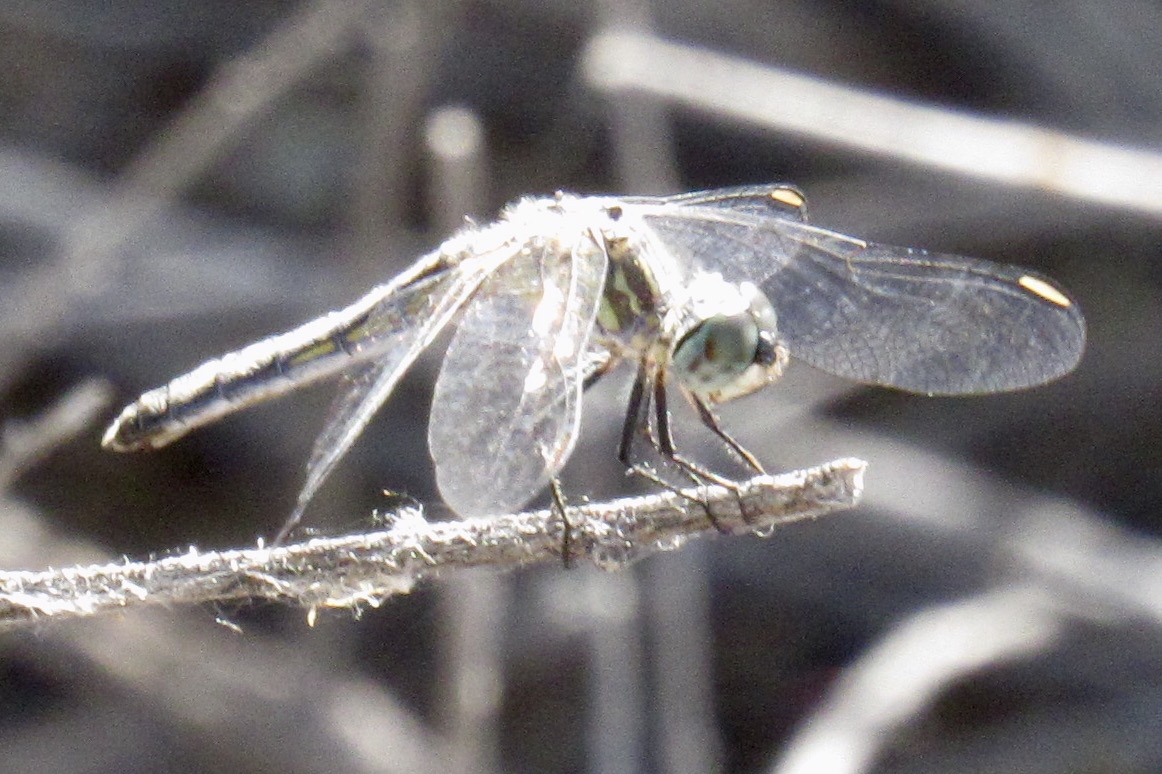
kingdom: Animalia
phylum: Arthropoda
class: Insecta
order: Odonata
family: Libellulidae
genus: Pachydiplax
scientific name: Pachydiplax longipennis
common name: Blue dasher
